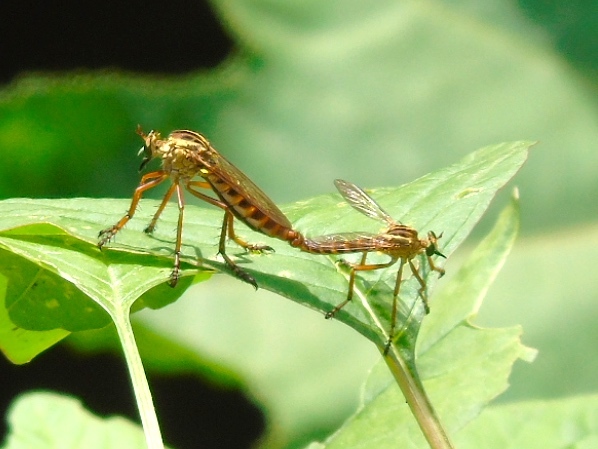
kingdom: Animalia
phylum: Arthropoda
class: Insecta
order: Diptera
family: Asilidae
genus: Diogmites
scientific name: Diogmites
